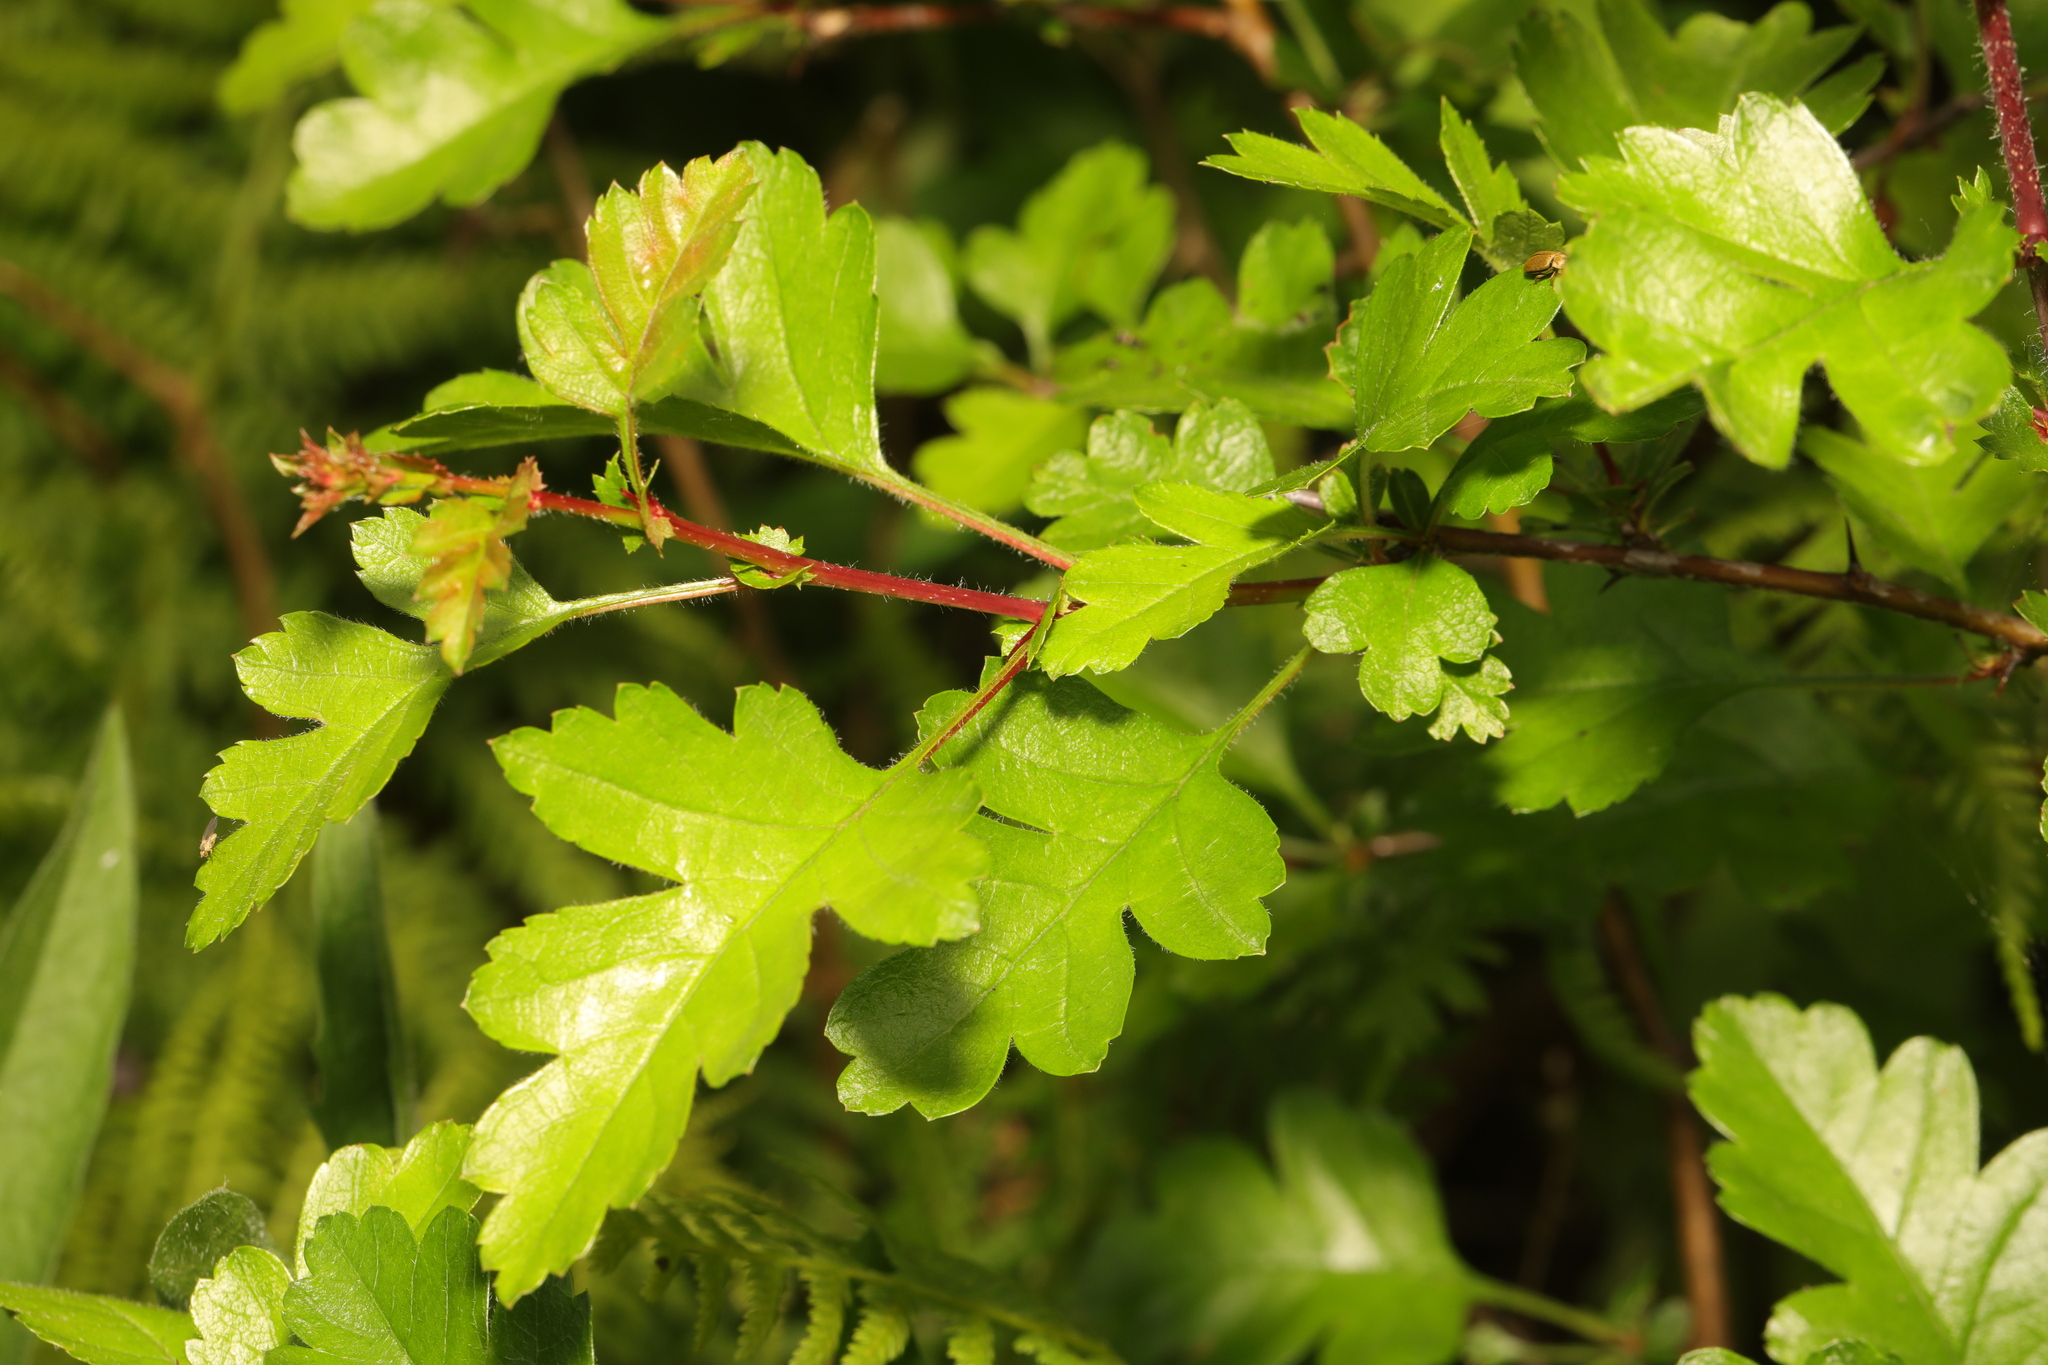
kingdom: Plantae
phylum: Tracheophyta
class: Magnoliopsida
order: Rosales
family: Rosaceae
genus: Crataegus
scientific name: Crataegus monogyna
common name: Hawthorn
